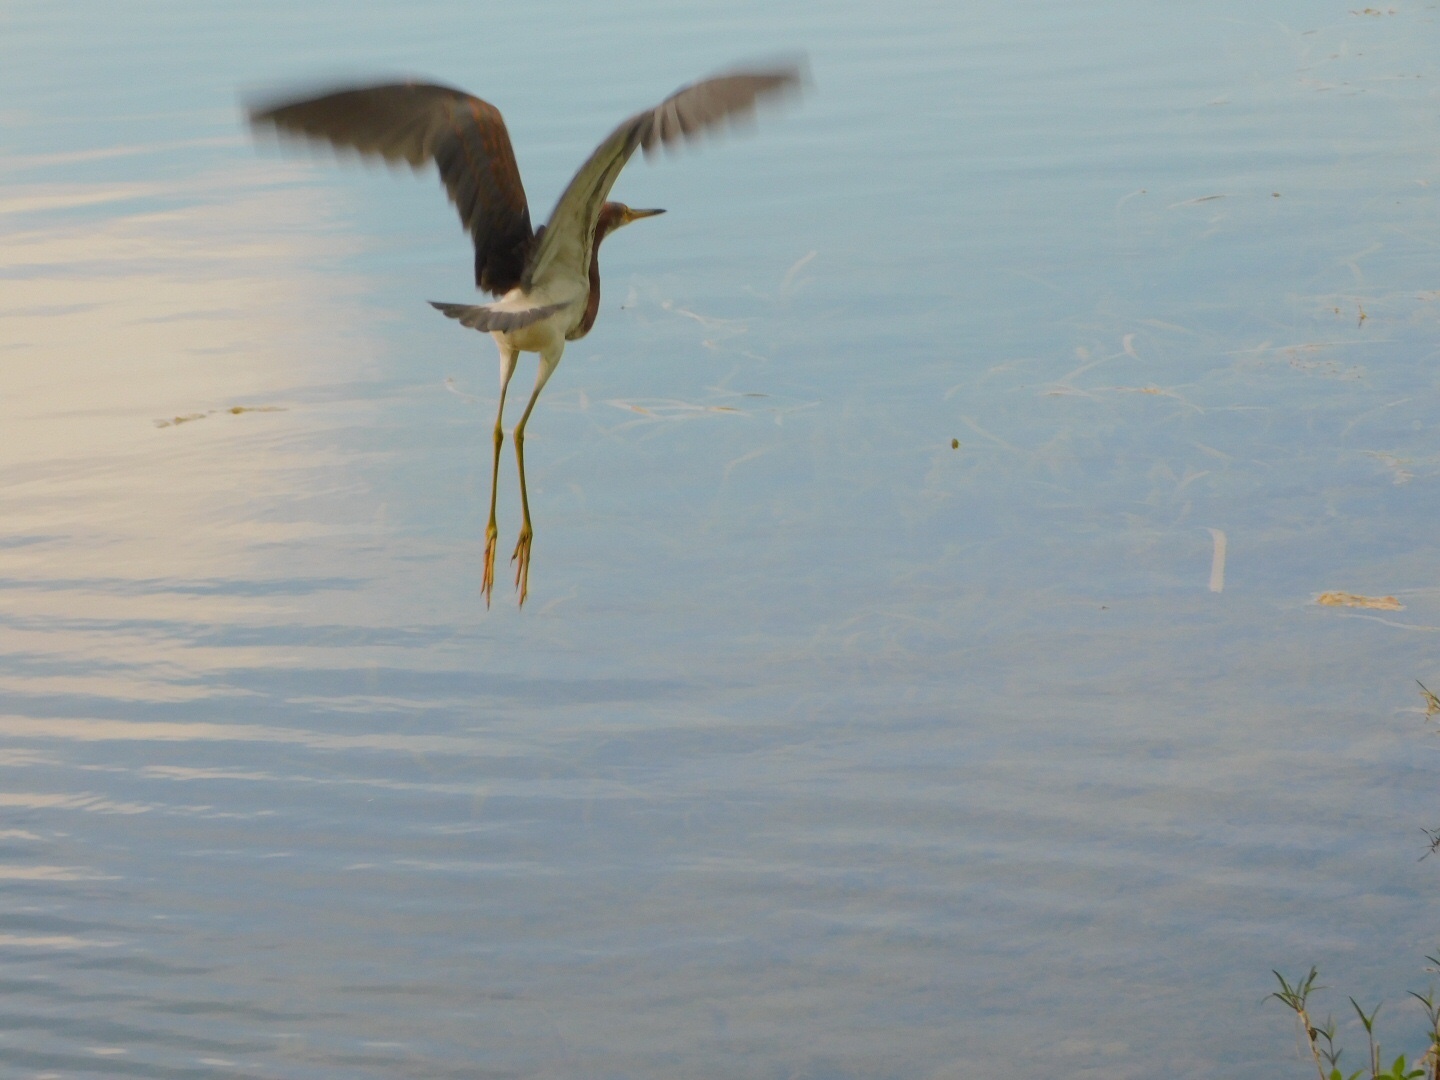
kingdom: Animalia
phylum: Chordata
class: Aves
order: Pelecaniformes
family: Ardeidae
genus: Egretta
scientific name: Egretta tricolor
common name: Tricolored heron
